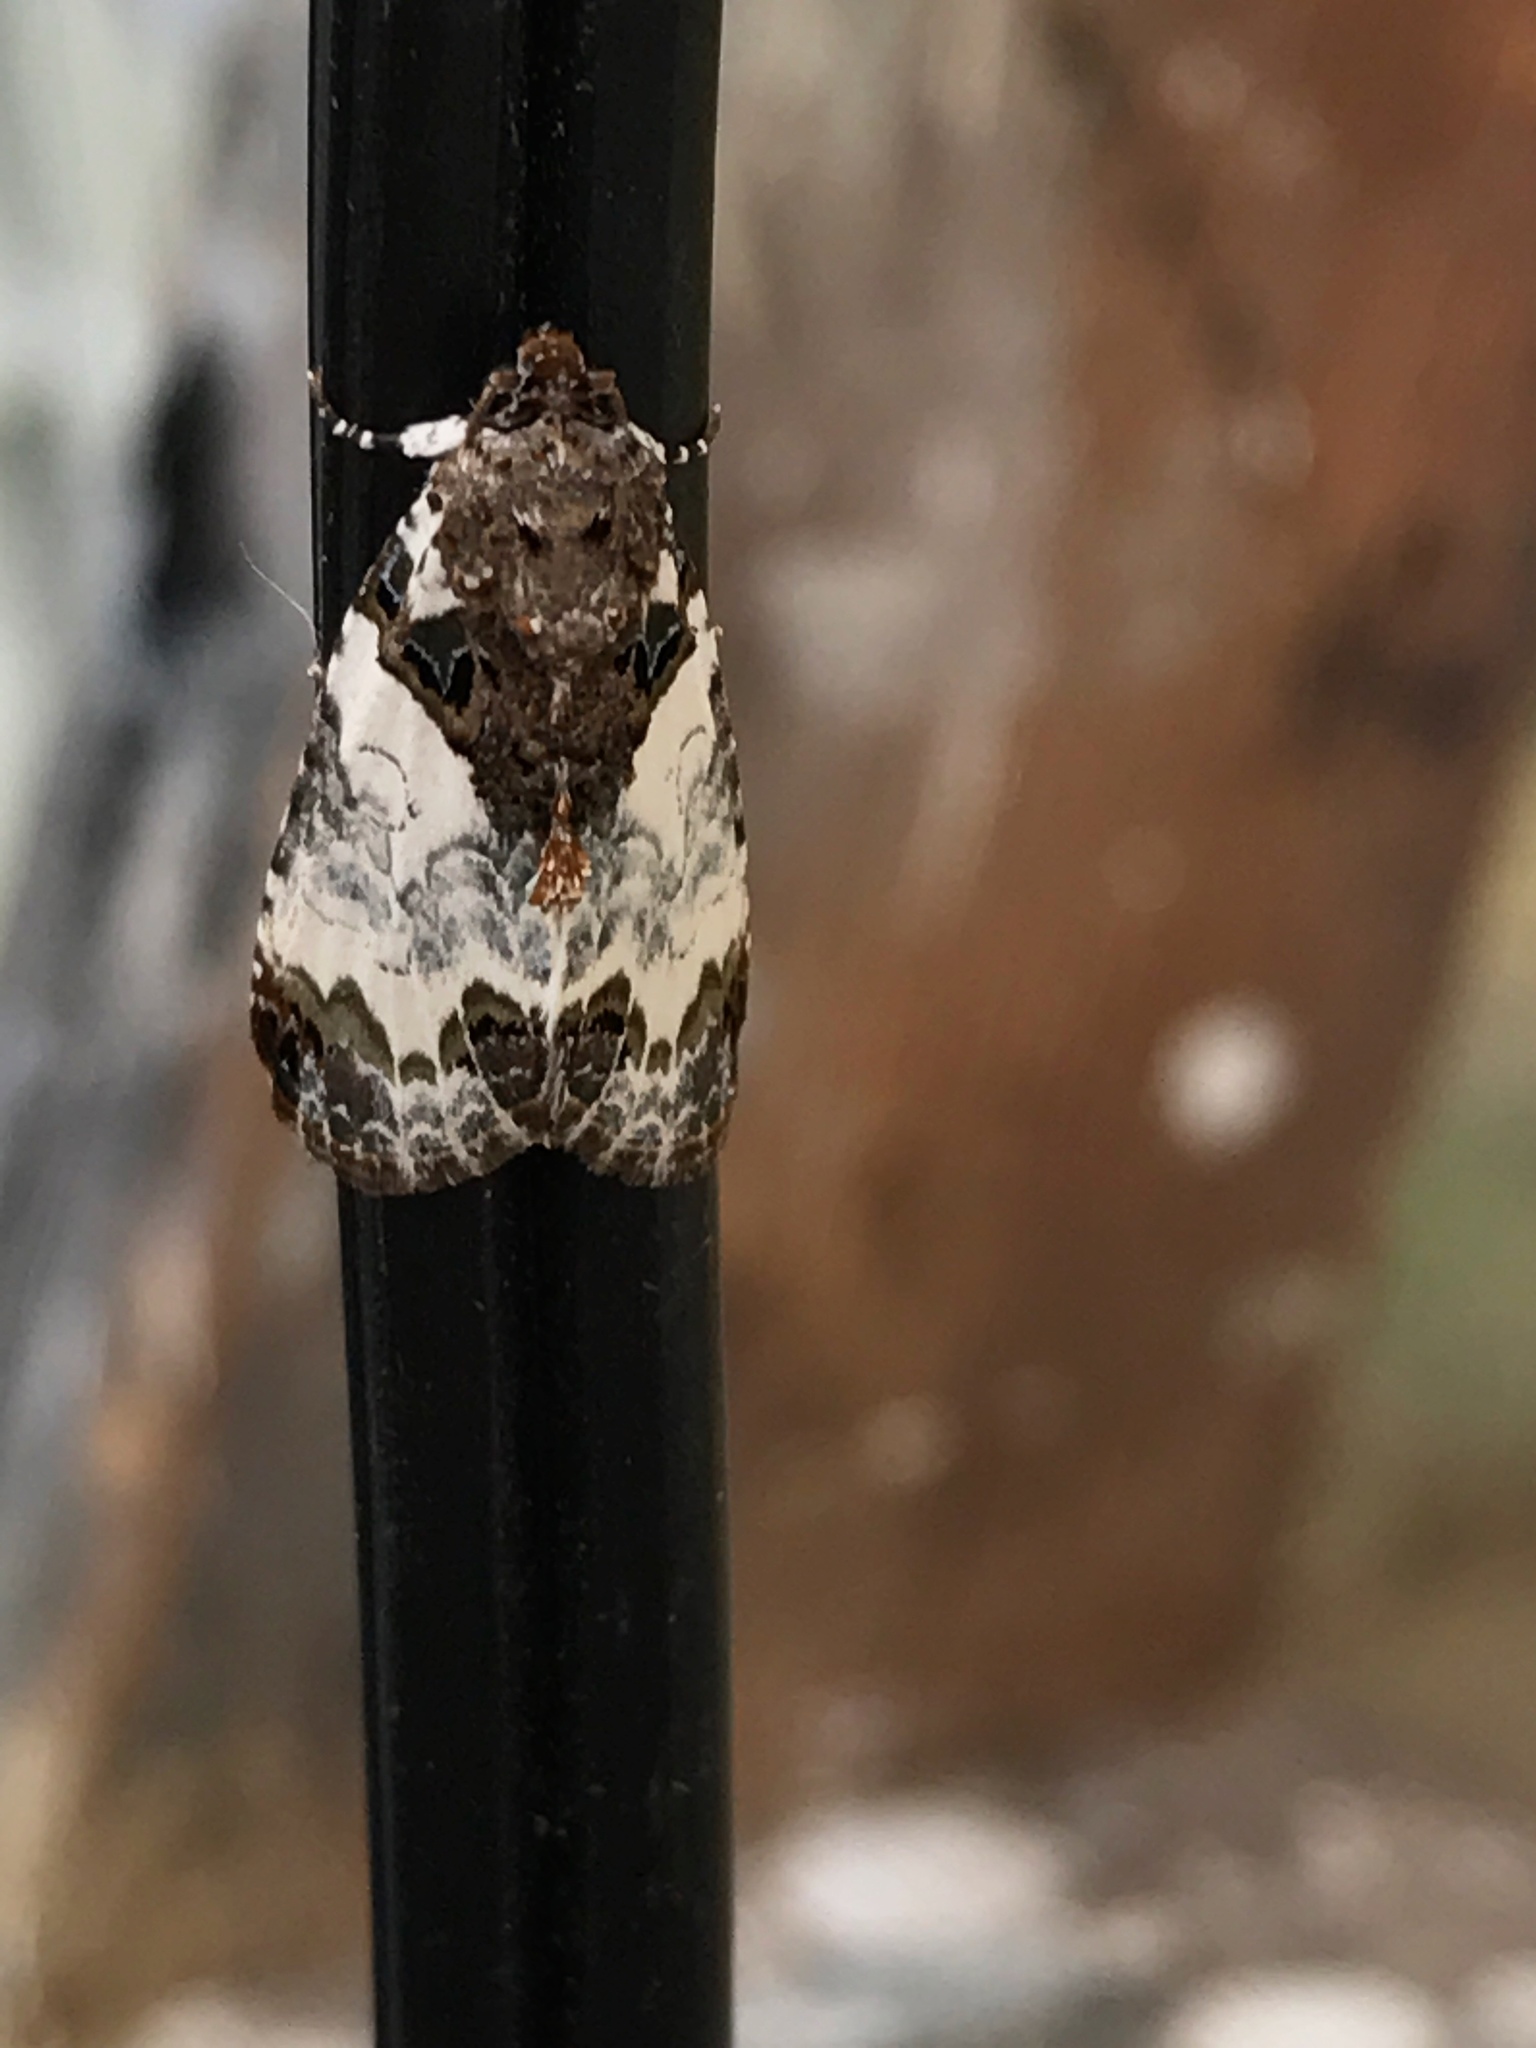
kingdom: Animalia
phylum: Arthropoda
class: Insecta
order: Lepidoptera
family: Noctuidae
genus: Cerma
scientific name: Cerma cerintha
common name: Tufted bird-dropping moth
